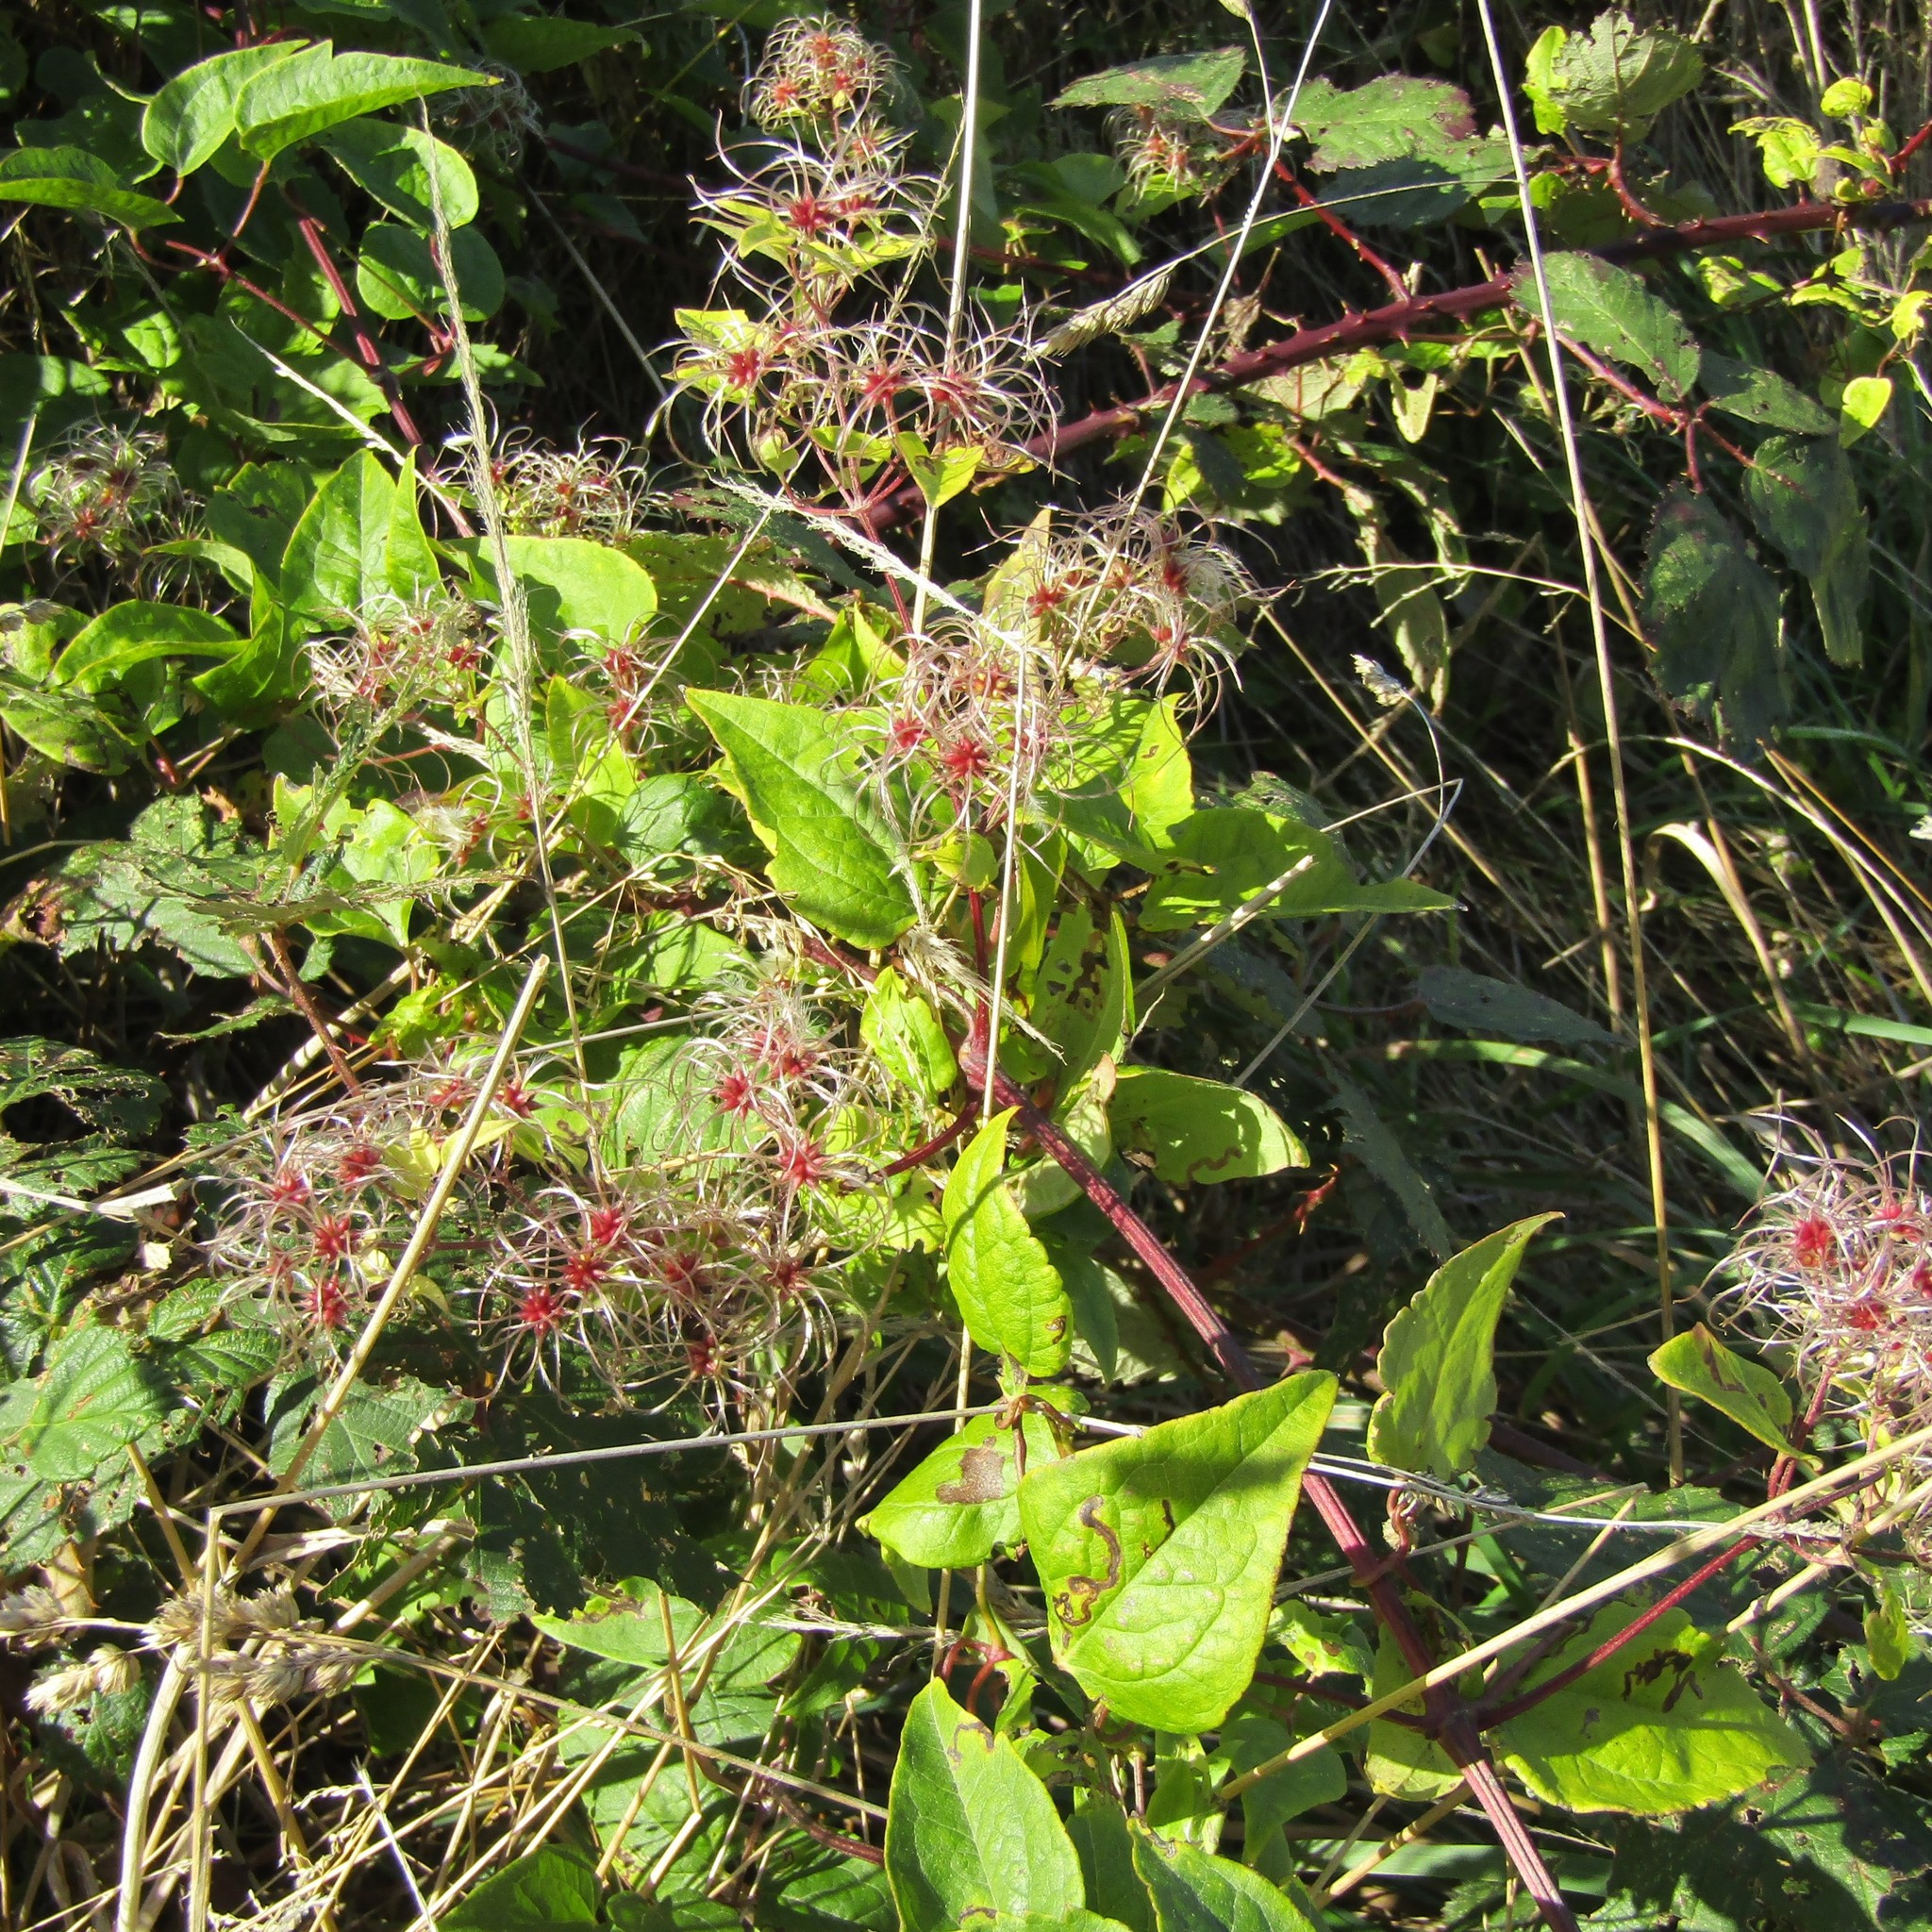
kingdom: Plantae
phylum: Tracheophyta
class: Magnoliopsida
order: Ranunculales
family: Ranunculaceae
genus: Clematis
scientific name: Clematis vitalba
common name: Evergreen clematis
